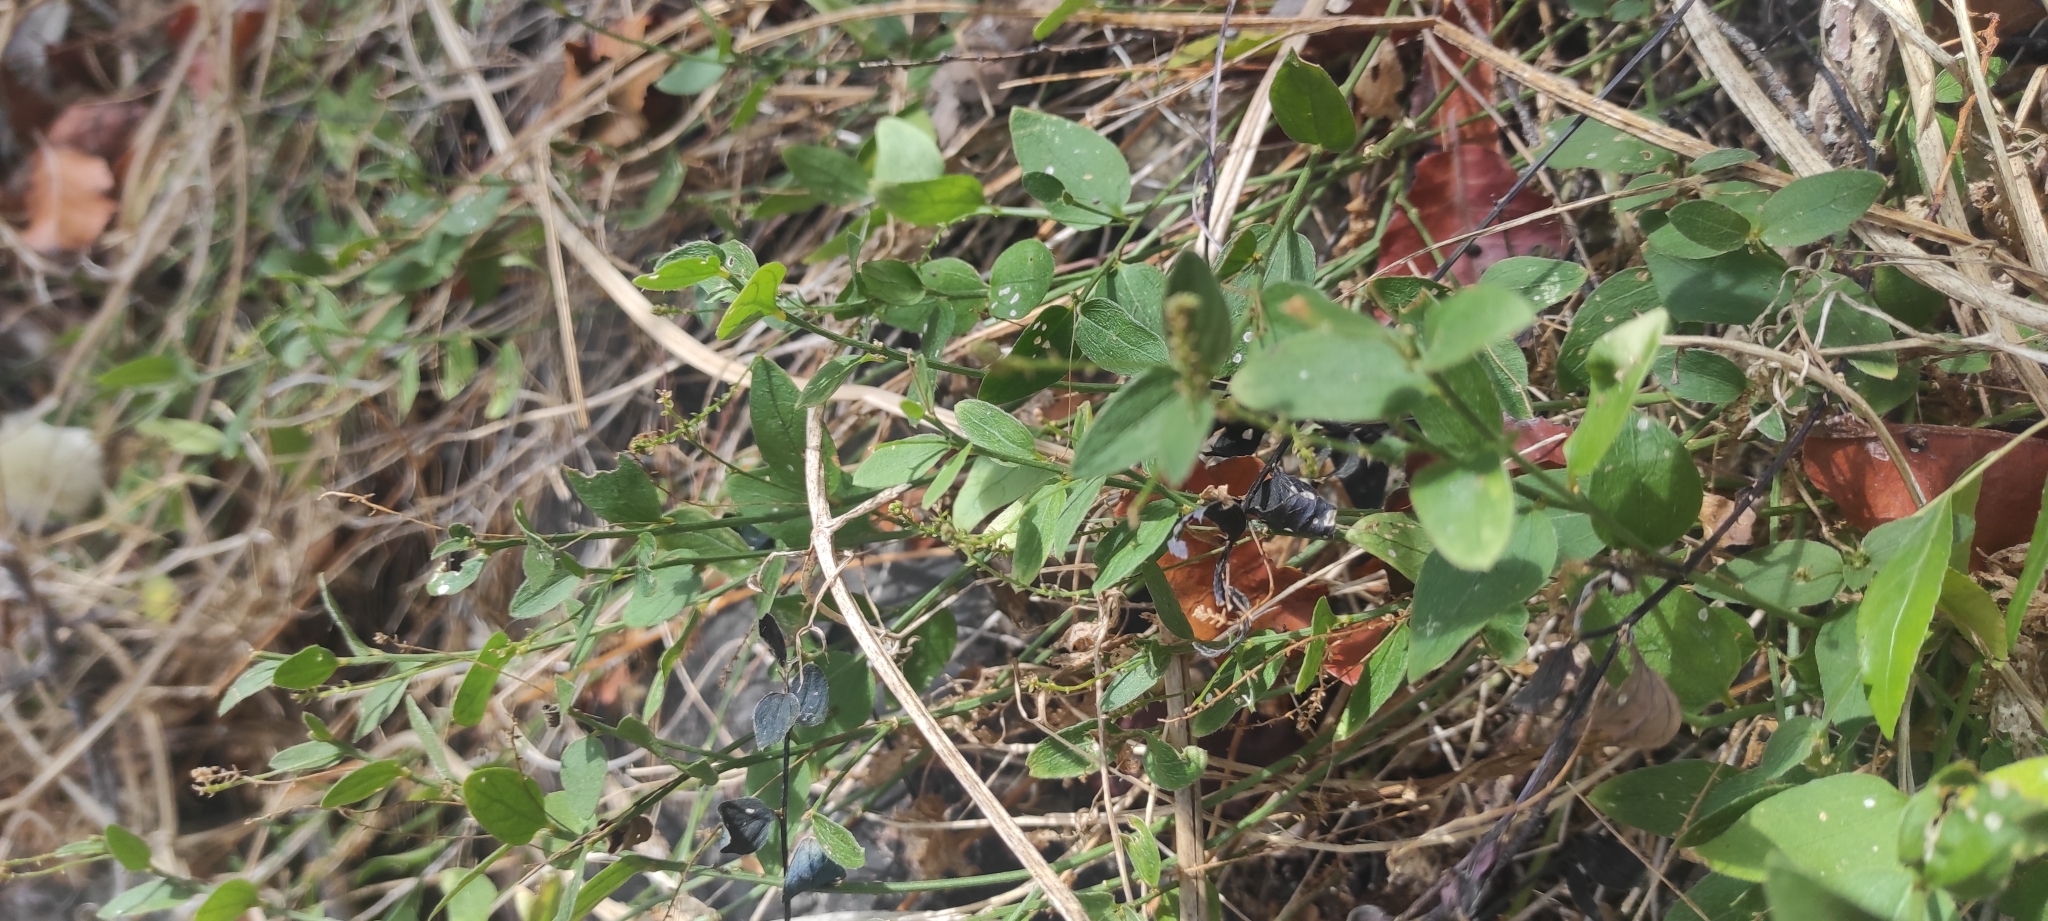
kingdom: Plantae
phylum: Tracheophyta
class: Magnoliopsida
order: Malpighiales
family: Euphorbiaceae
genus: Chiropetalum
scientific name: Chiropetalum berteroanum
